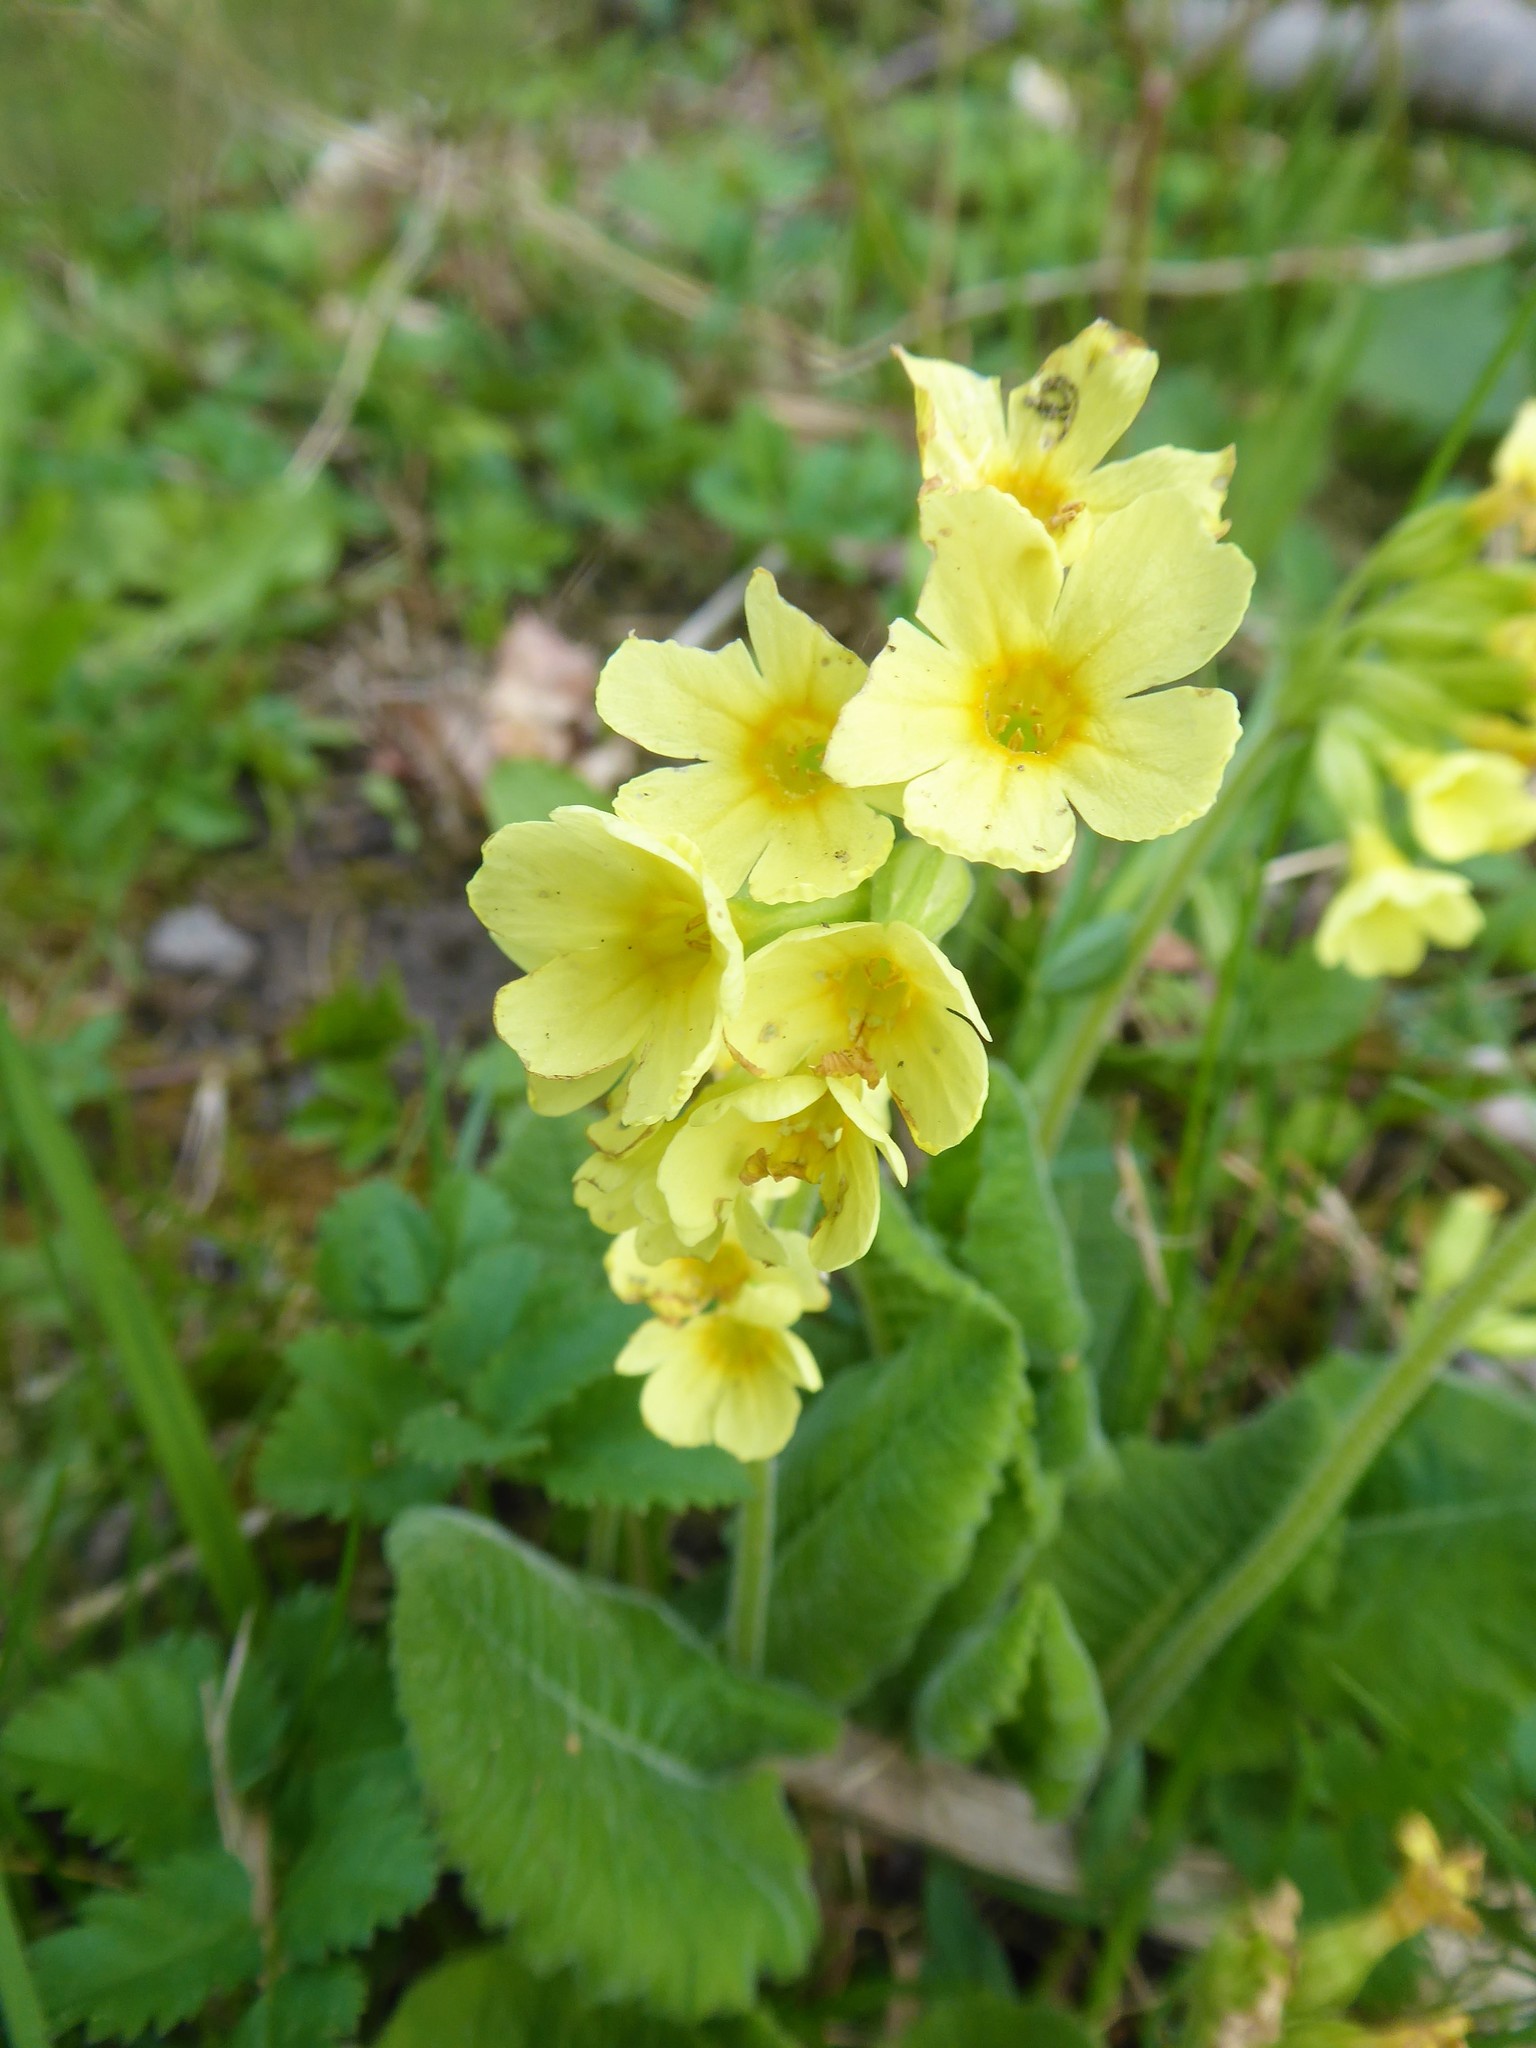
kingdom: Plantae
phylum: Tracheophyta
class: Magnoliopsida
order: Ericales
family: Primulaceae
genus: Primula
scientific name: Primula elatior
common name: Oxlip
